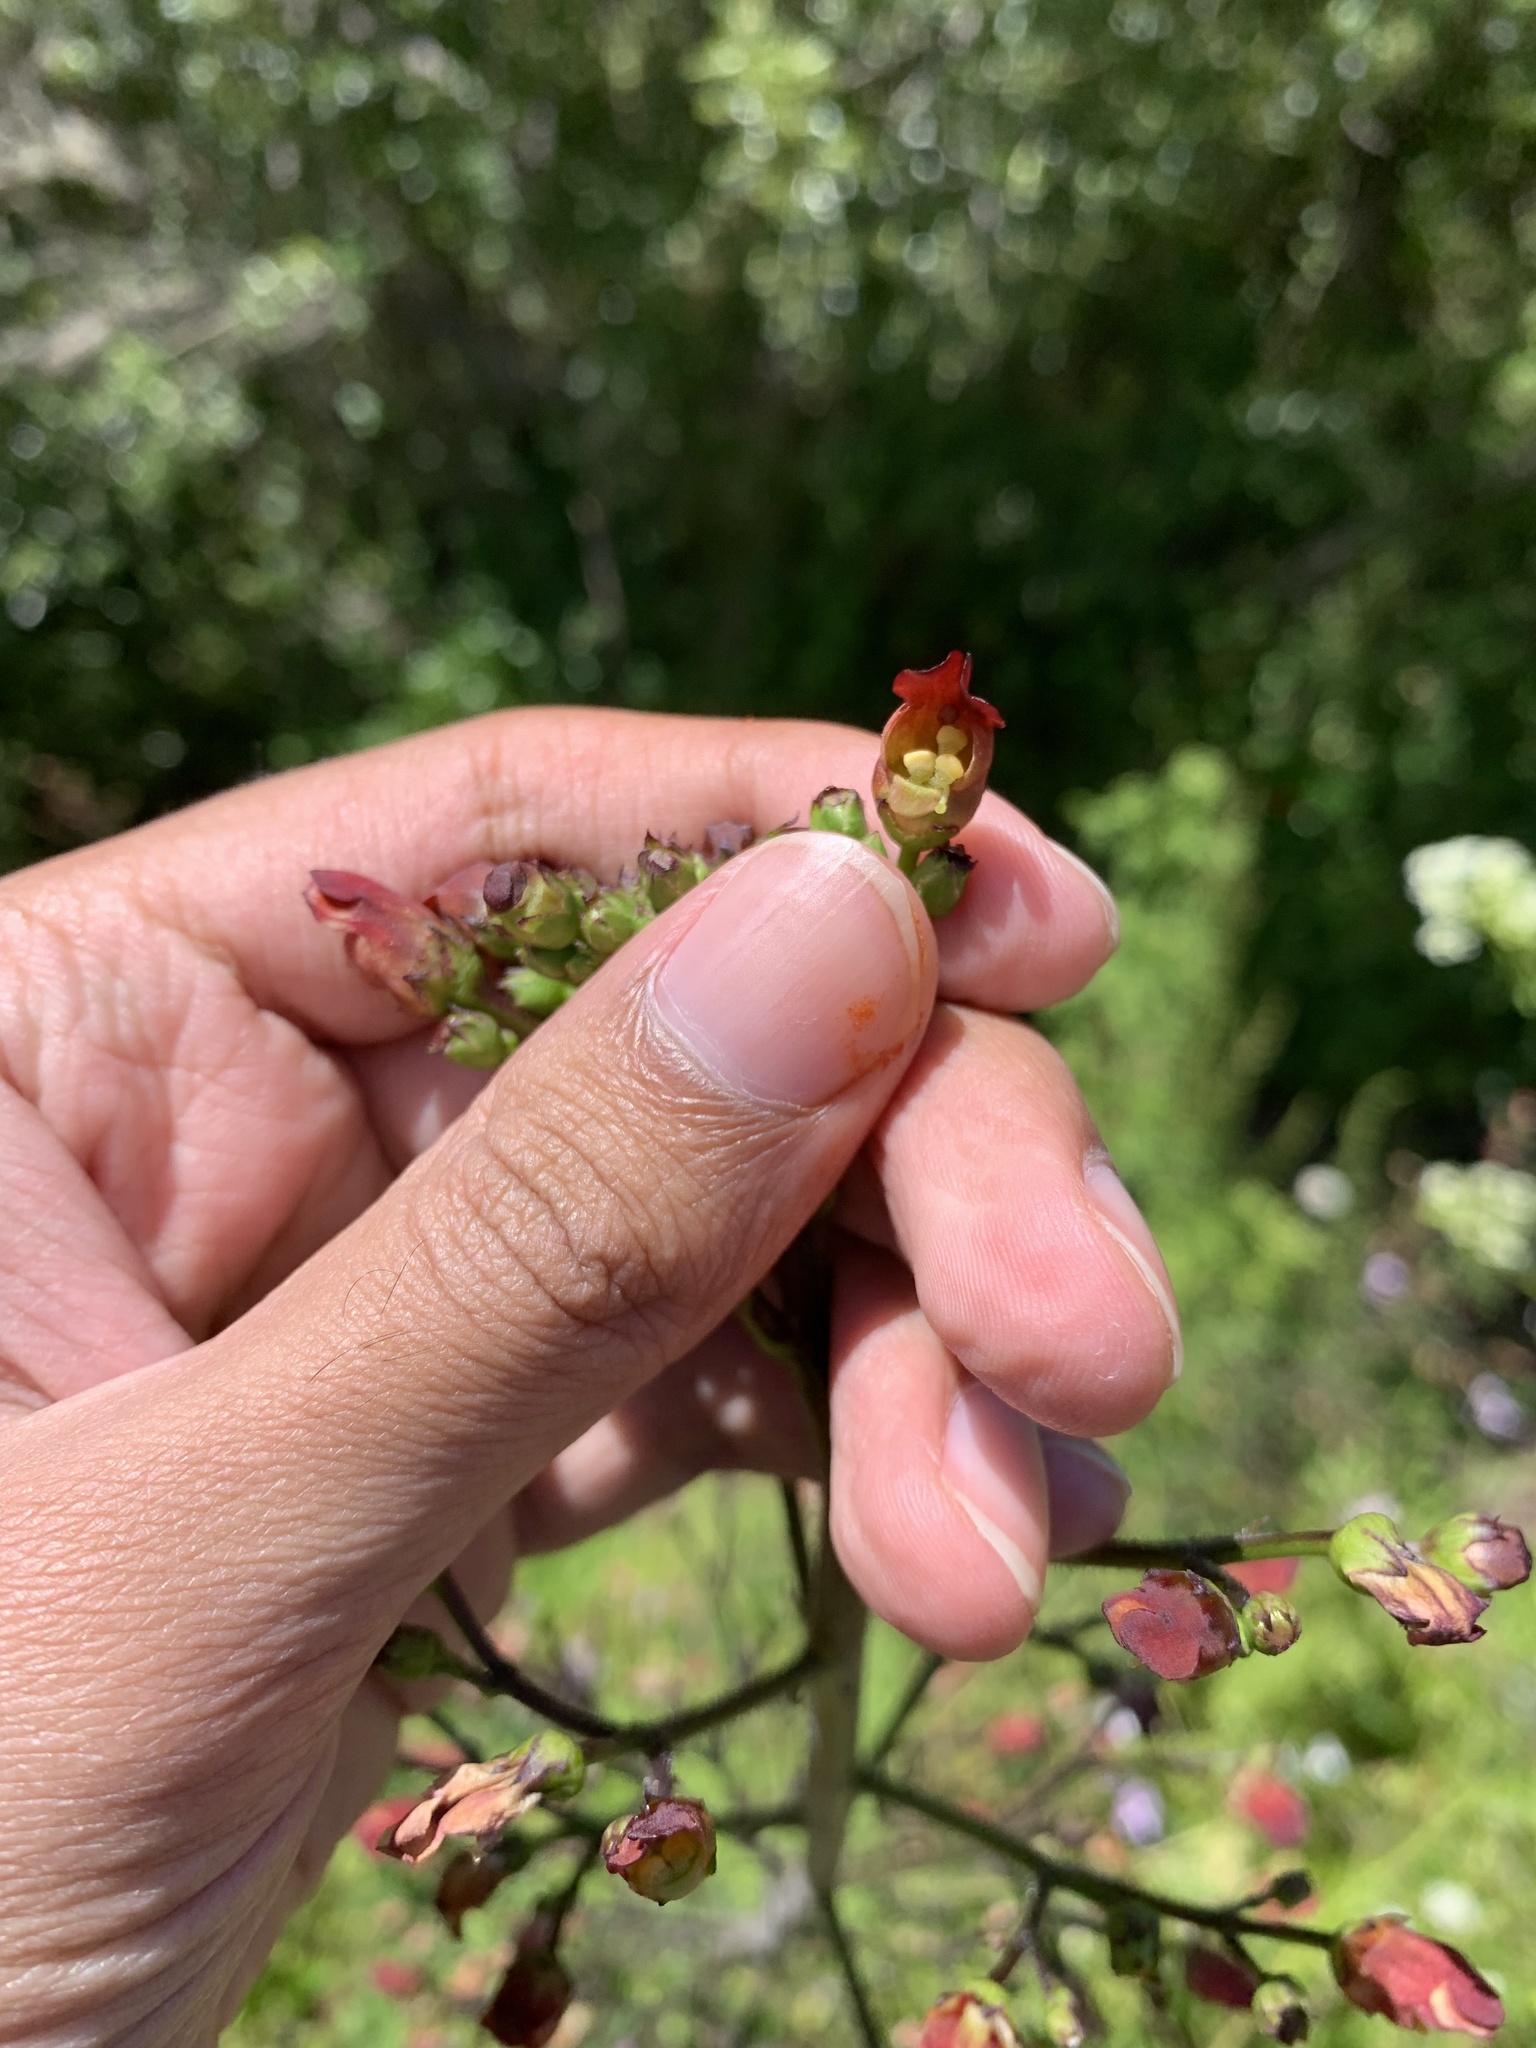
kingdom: Plantae
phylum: Tracheophyta
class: Magnoliopsida
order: Lamiales
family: Scrophulariaceae
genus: Scrophularia
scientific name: Scrophularia californica
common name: California figwort
